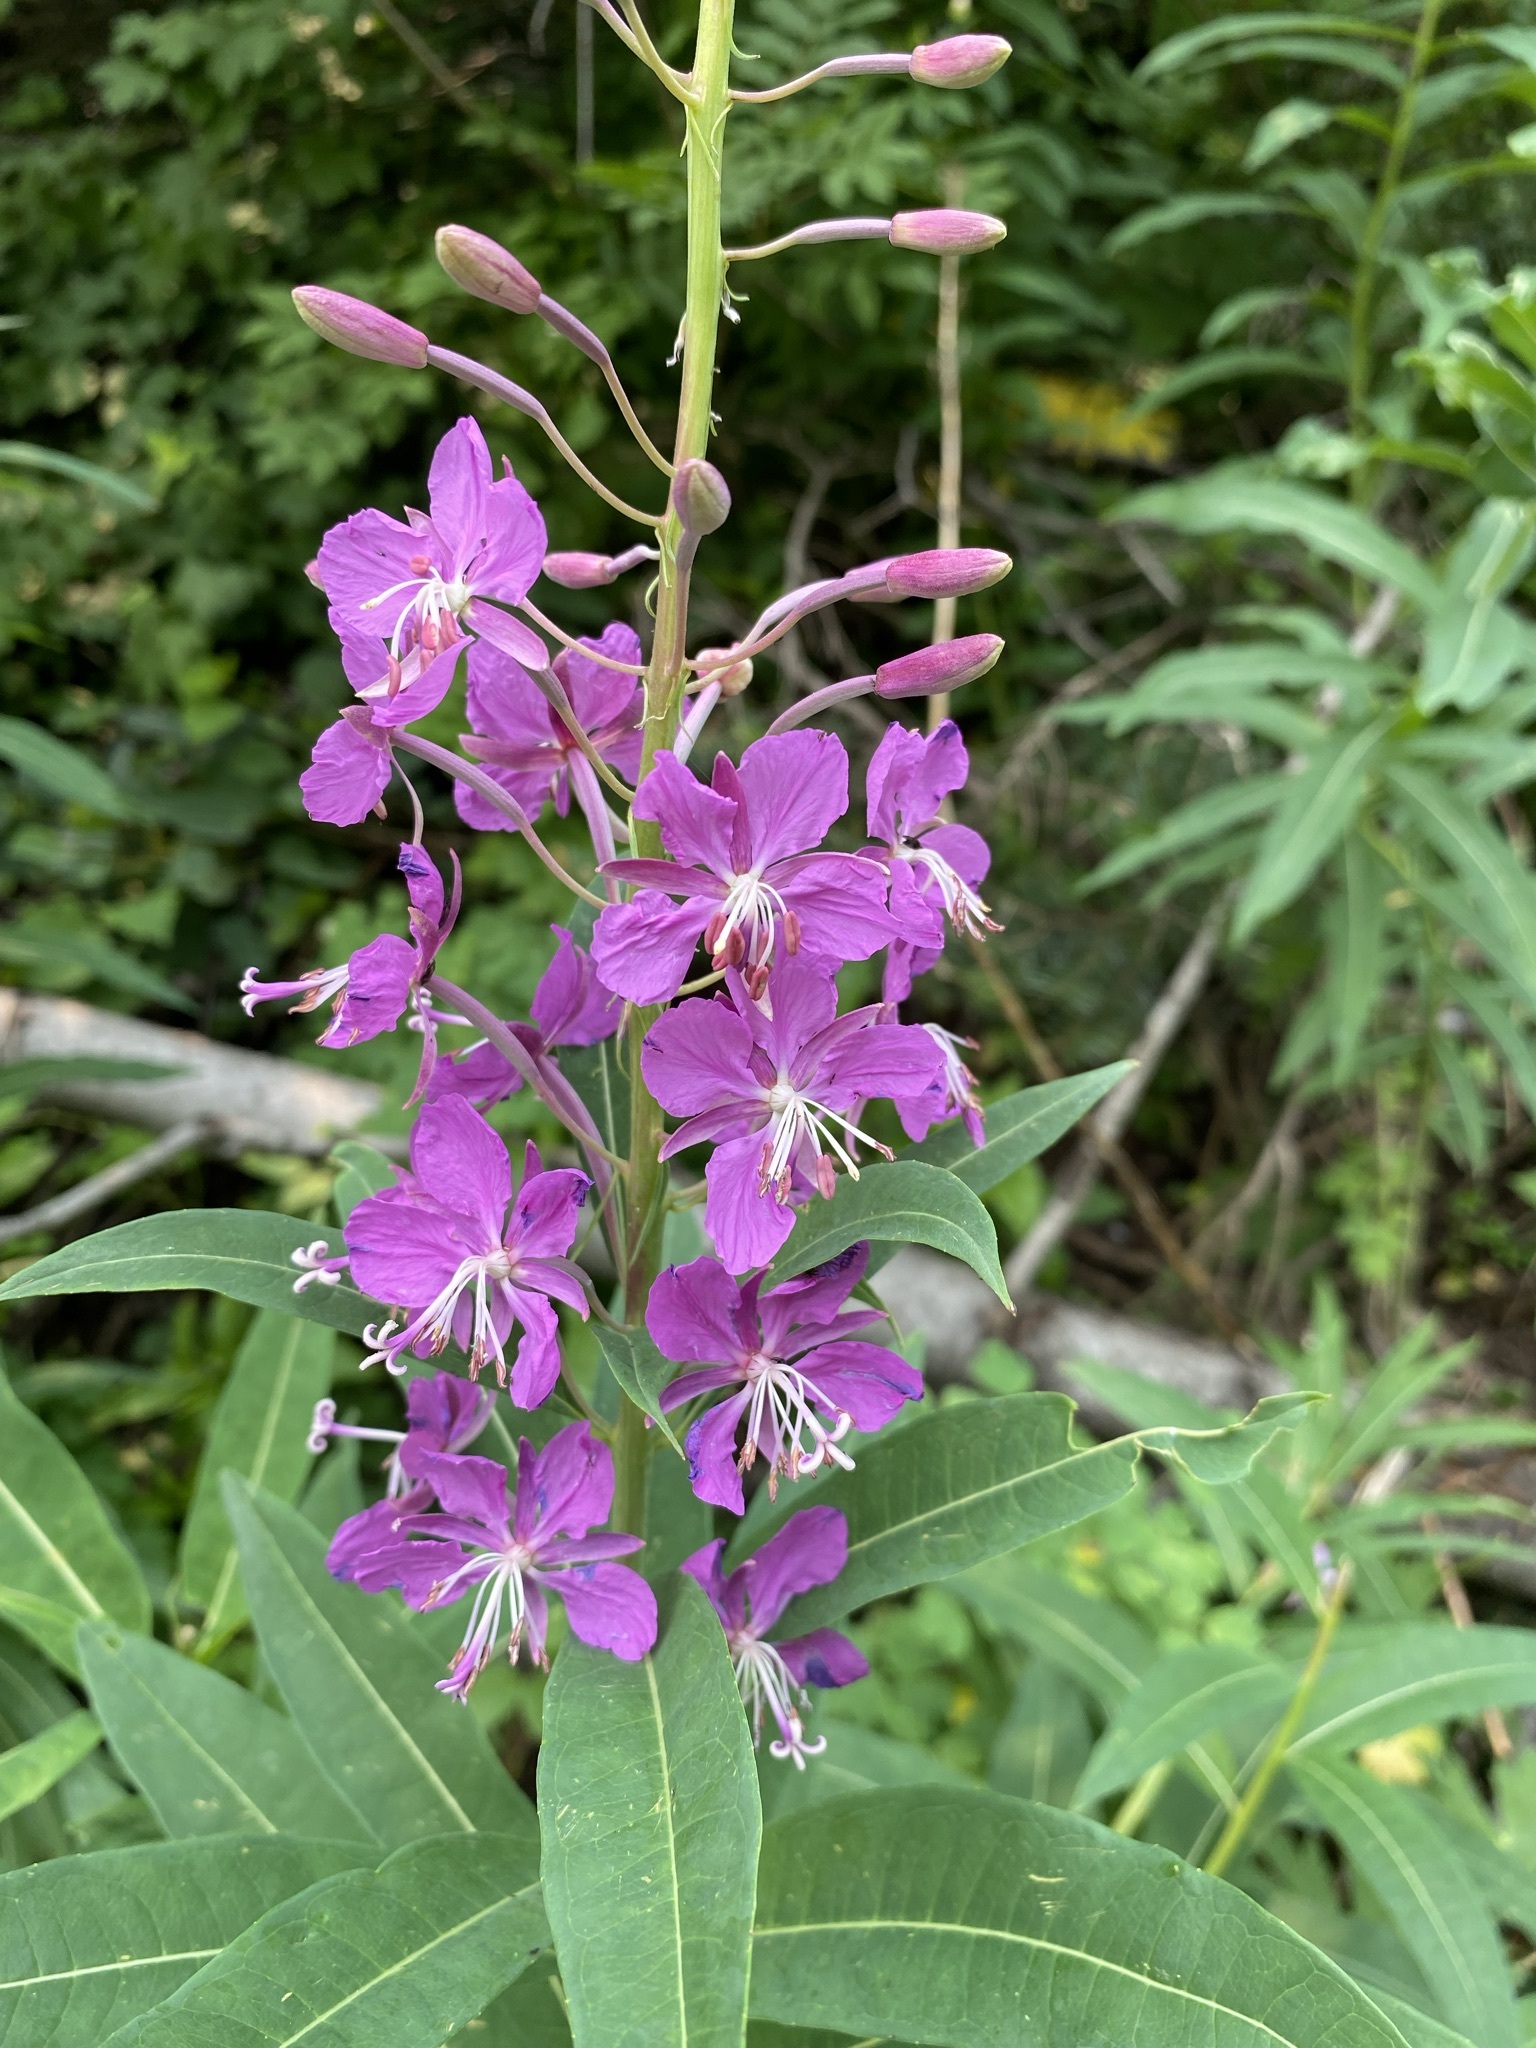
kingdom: Plantae
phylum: Tracheophyta
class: Magnoliopsida
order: Myrtales
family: Onagraceae
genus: Chamaenerion
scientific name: Chamaenerion angustifolium
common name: Fireweed
